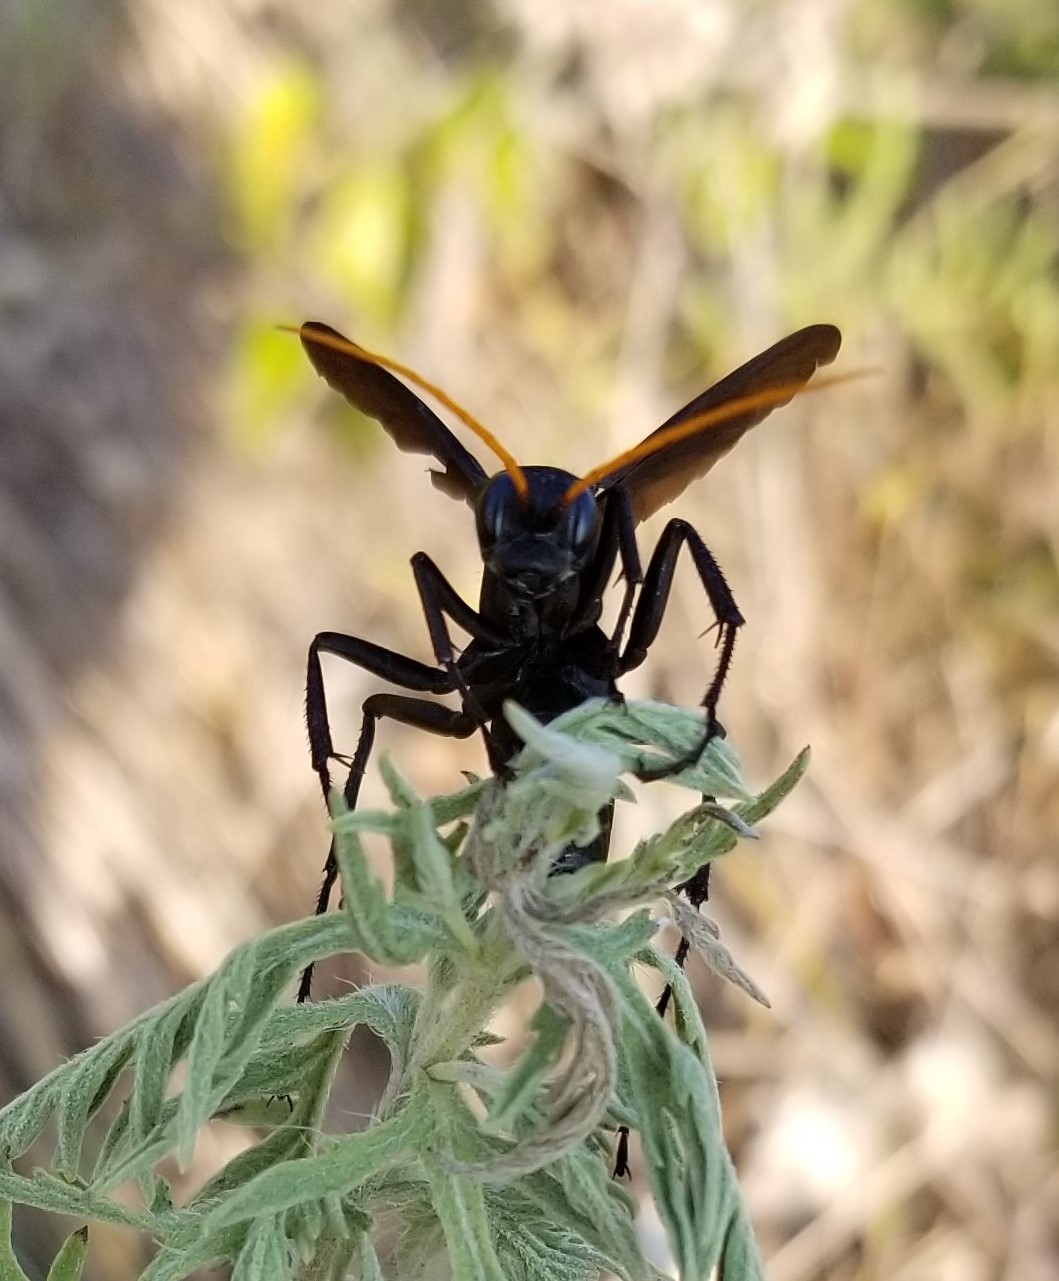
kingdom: Animalia
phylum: Arthropoda
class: Insecta
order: Hymenoptera
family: Pompilidae
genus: Entypus
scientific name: Entypus
